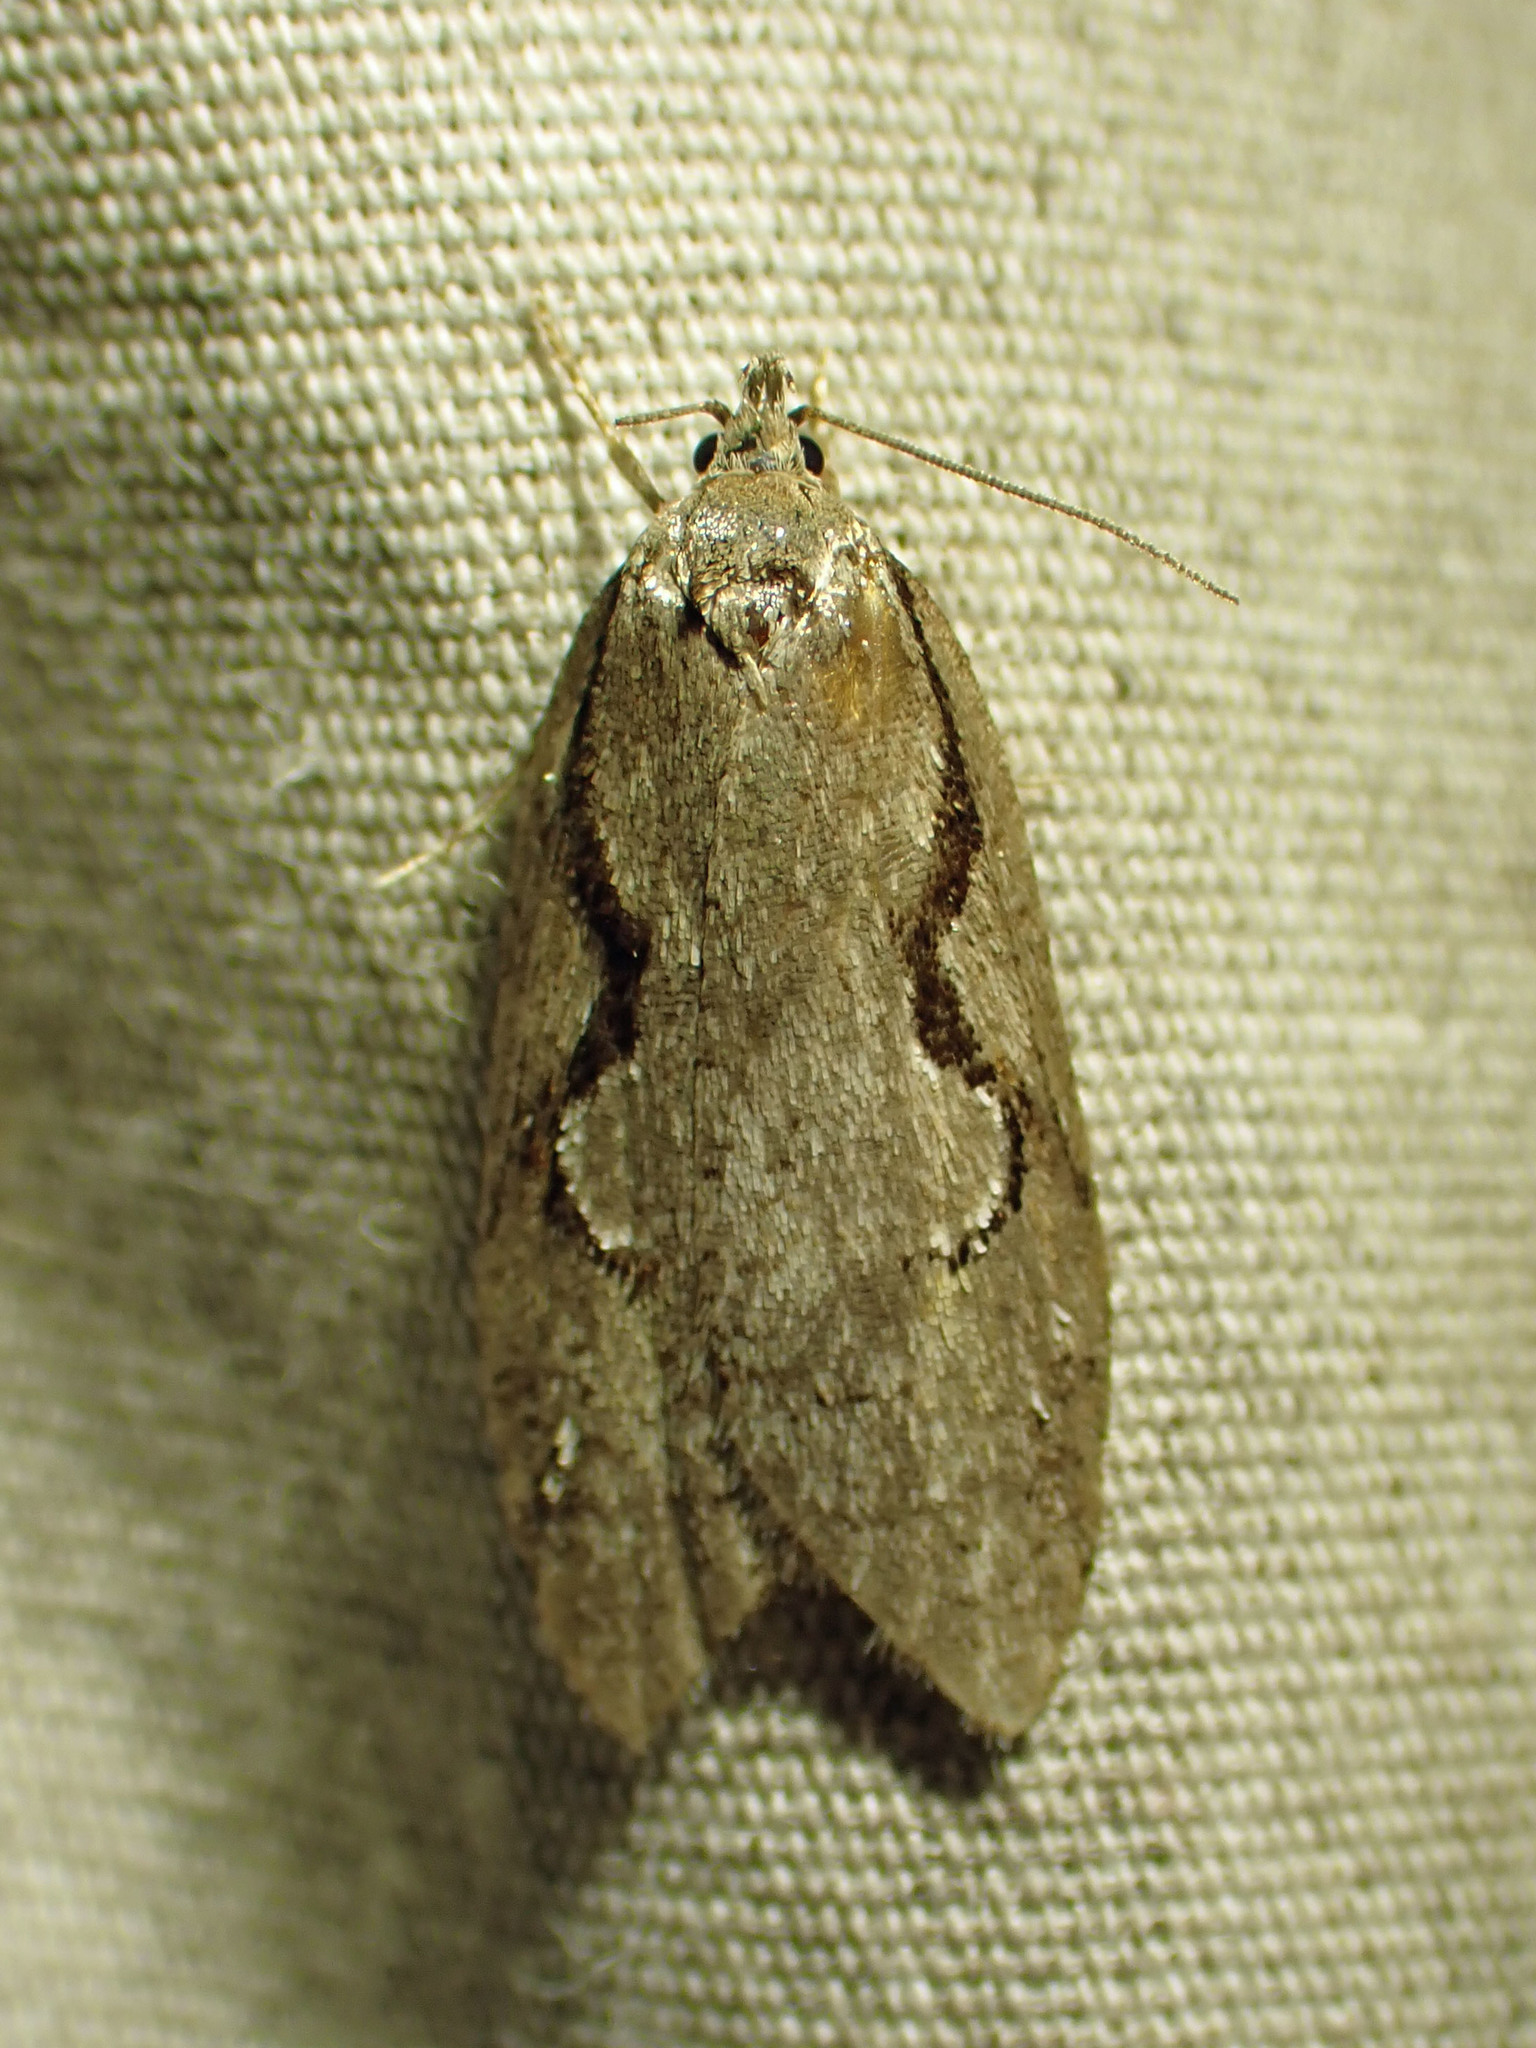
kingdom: Animalia
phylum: Arthropoda
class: Insecta
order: Lepidoptera
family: Depressariidae
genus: Semioscopis
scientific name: Semioscopis packardella
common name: Packard's concealer moth
